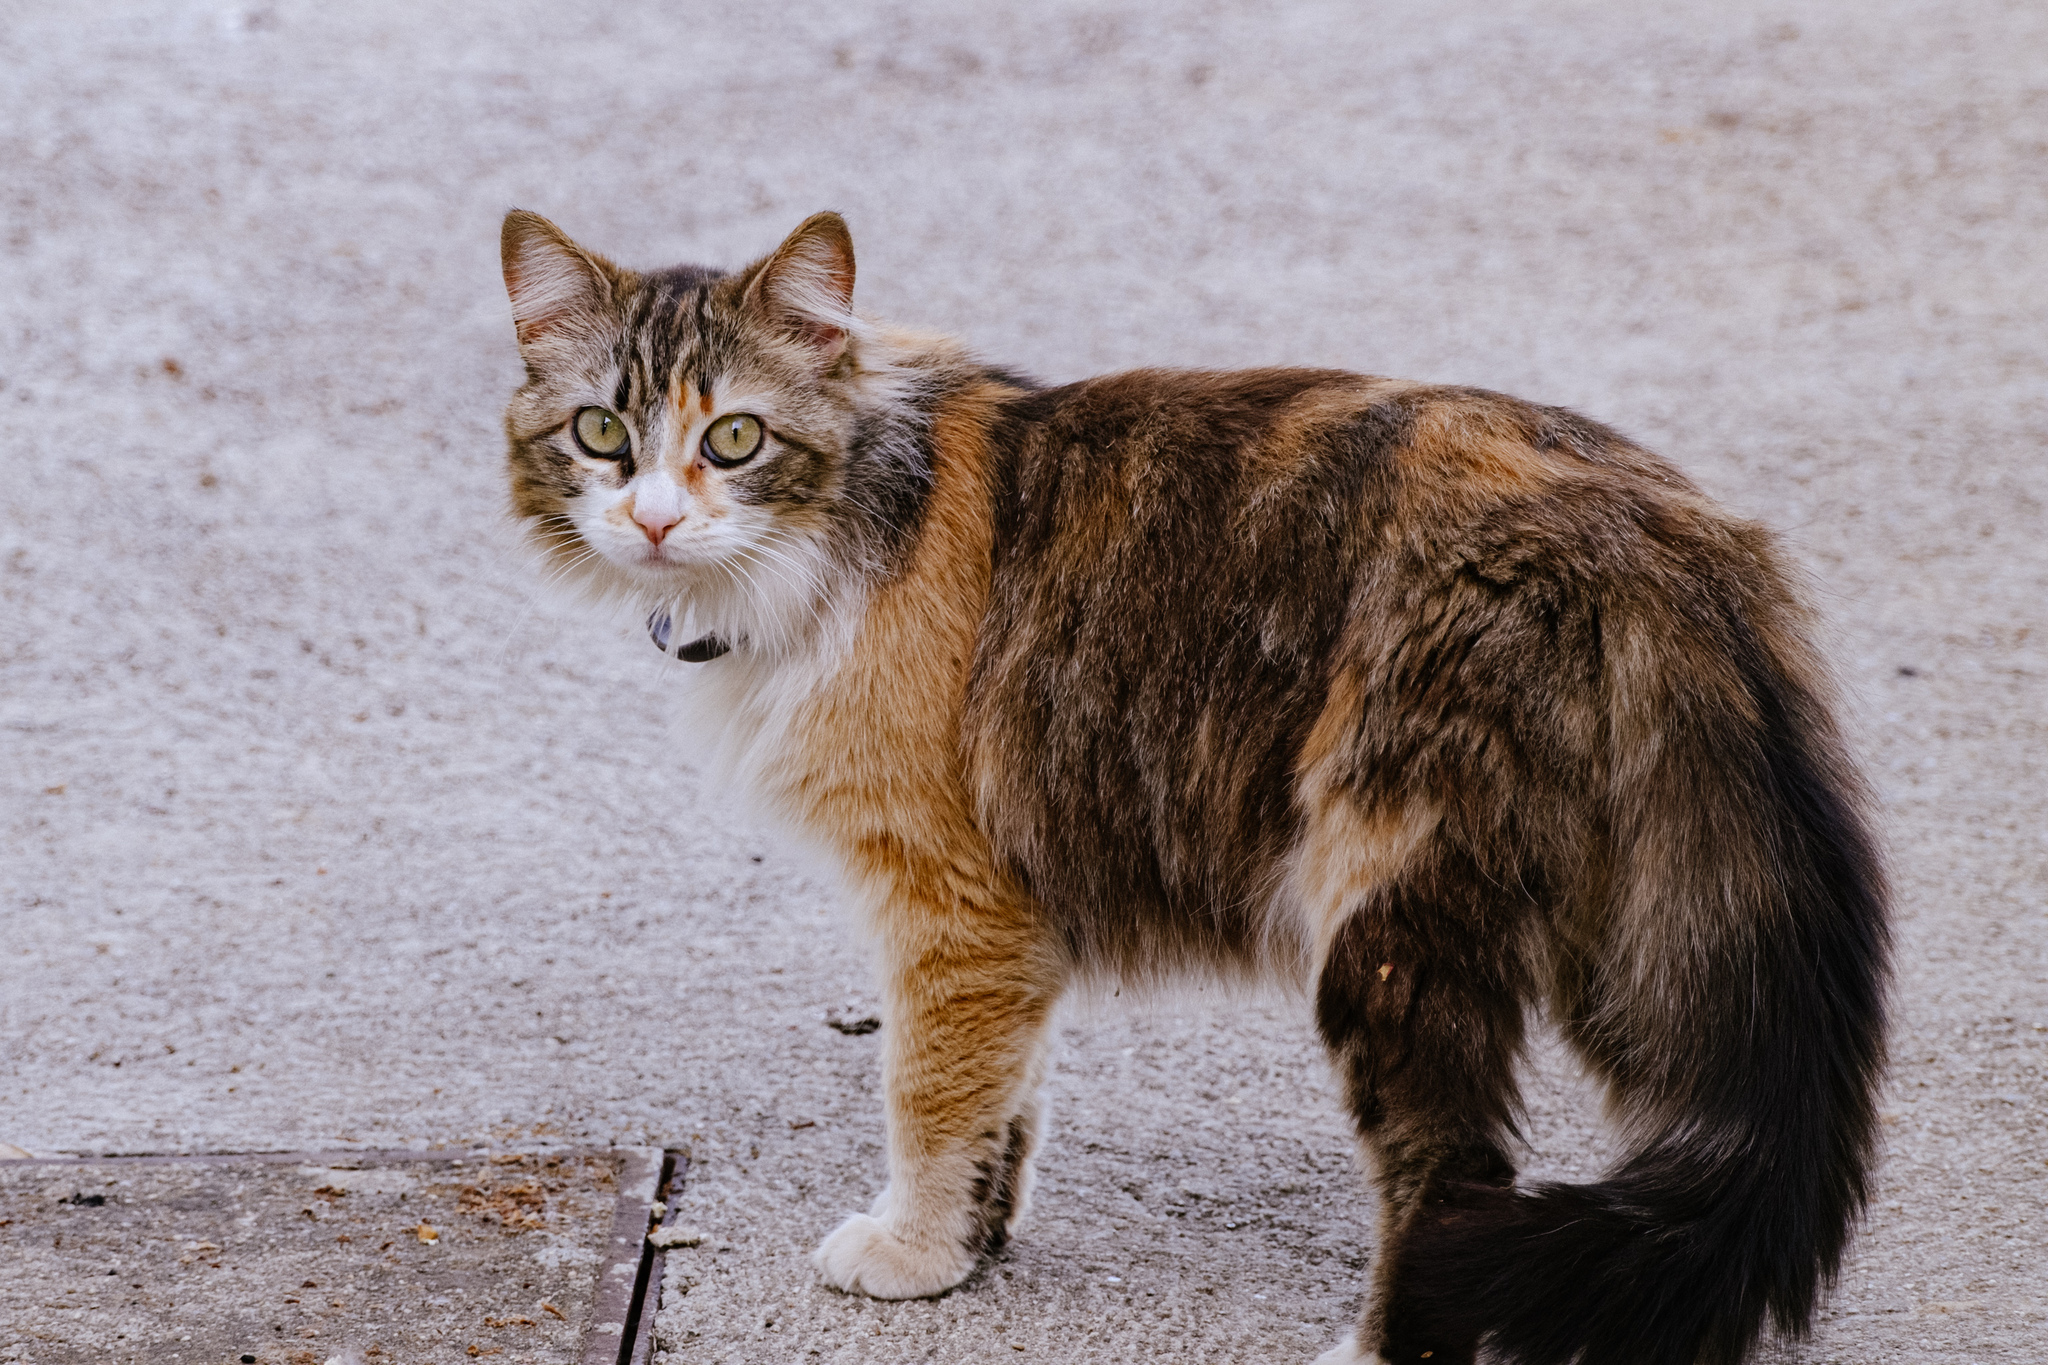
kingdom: Animalia
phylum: Chordata
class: Mammalia
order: Carnivora
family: Felidae
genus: Felis
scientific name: Felis catus
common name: Domestic cat
